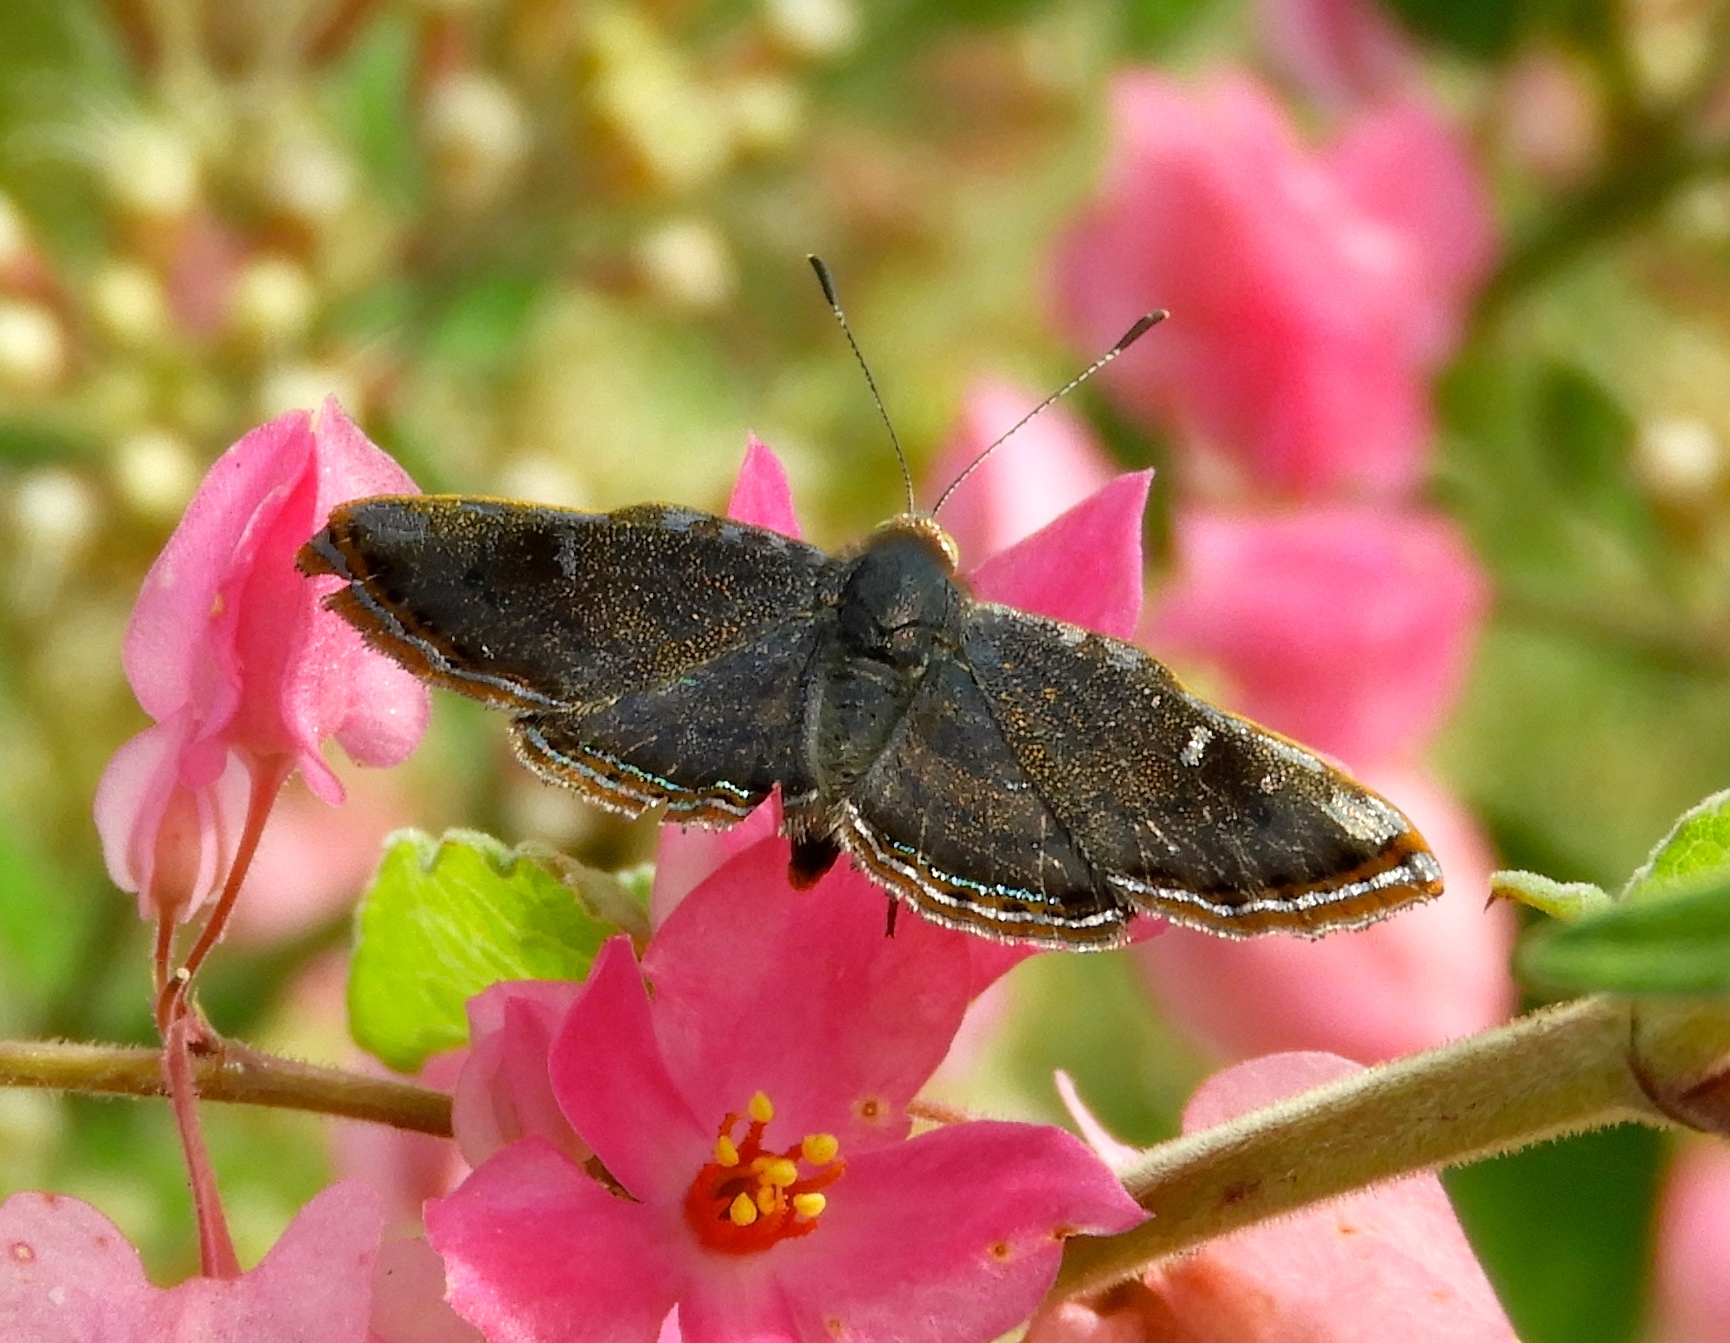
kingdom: Animalia
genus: Caria
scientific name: Caria ino
